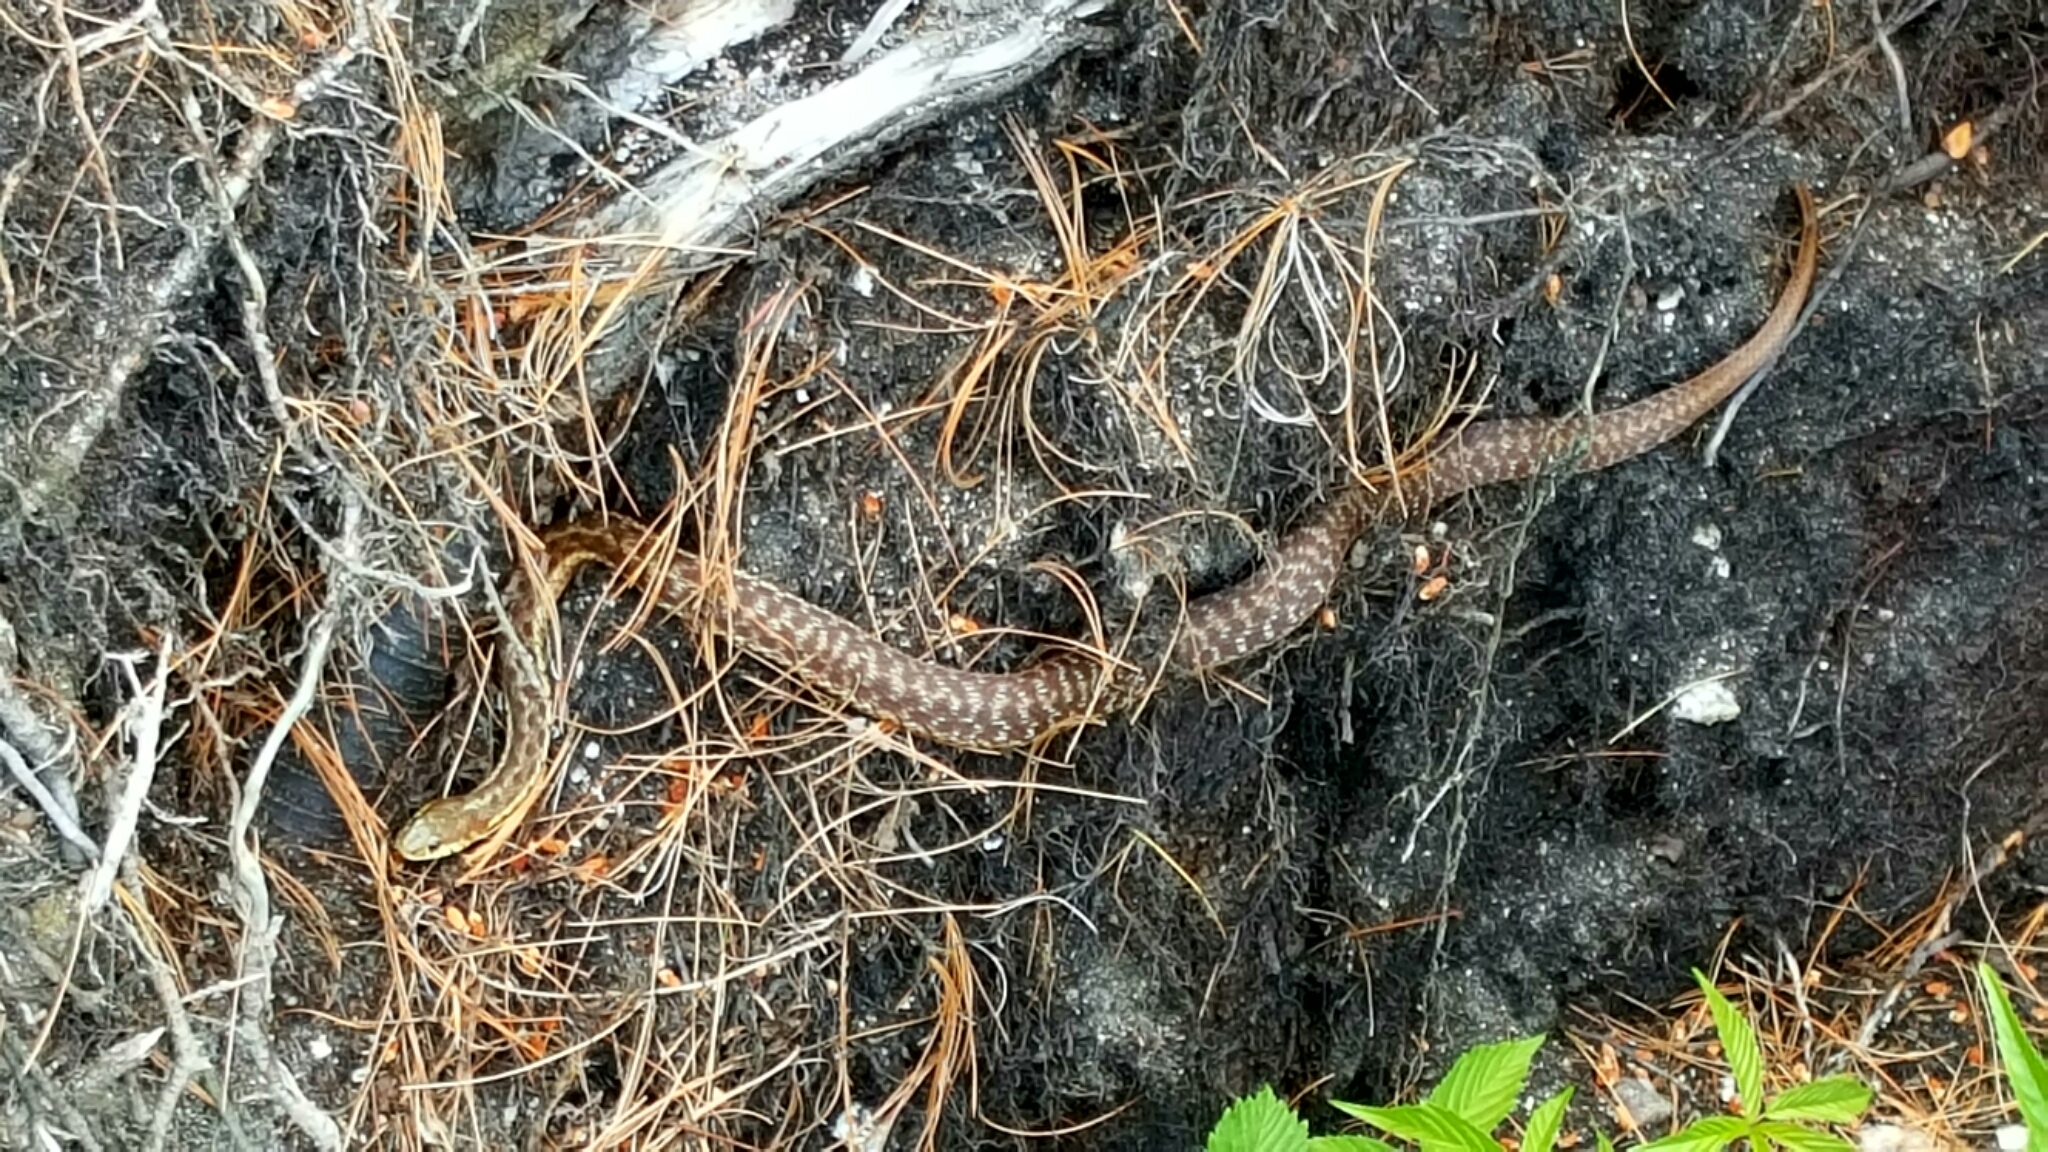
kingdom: Animalia
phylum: Chordata
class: Squamata
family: Colubridae
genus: Thamnophis
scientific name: Thamnophis sirtalis
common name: Common garter snake
